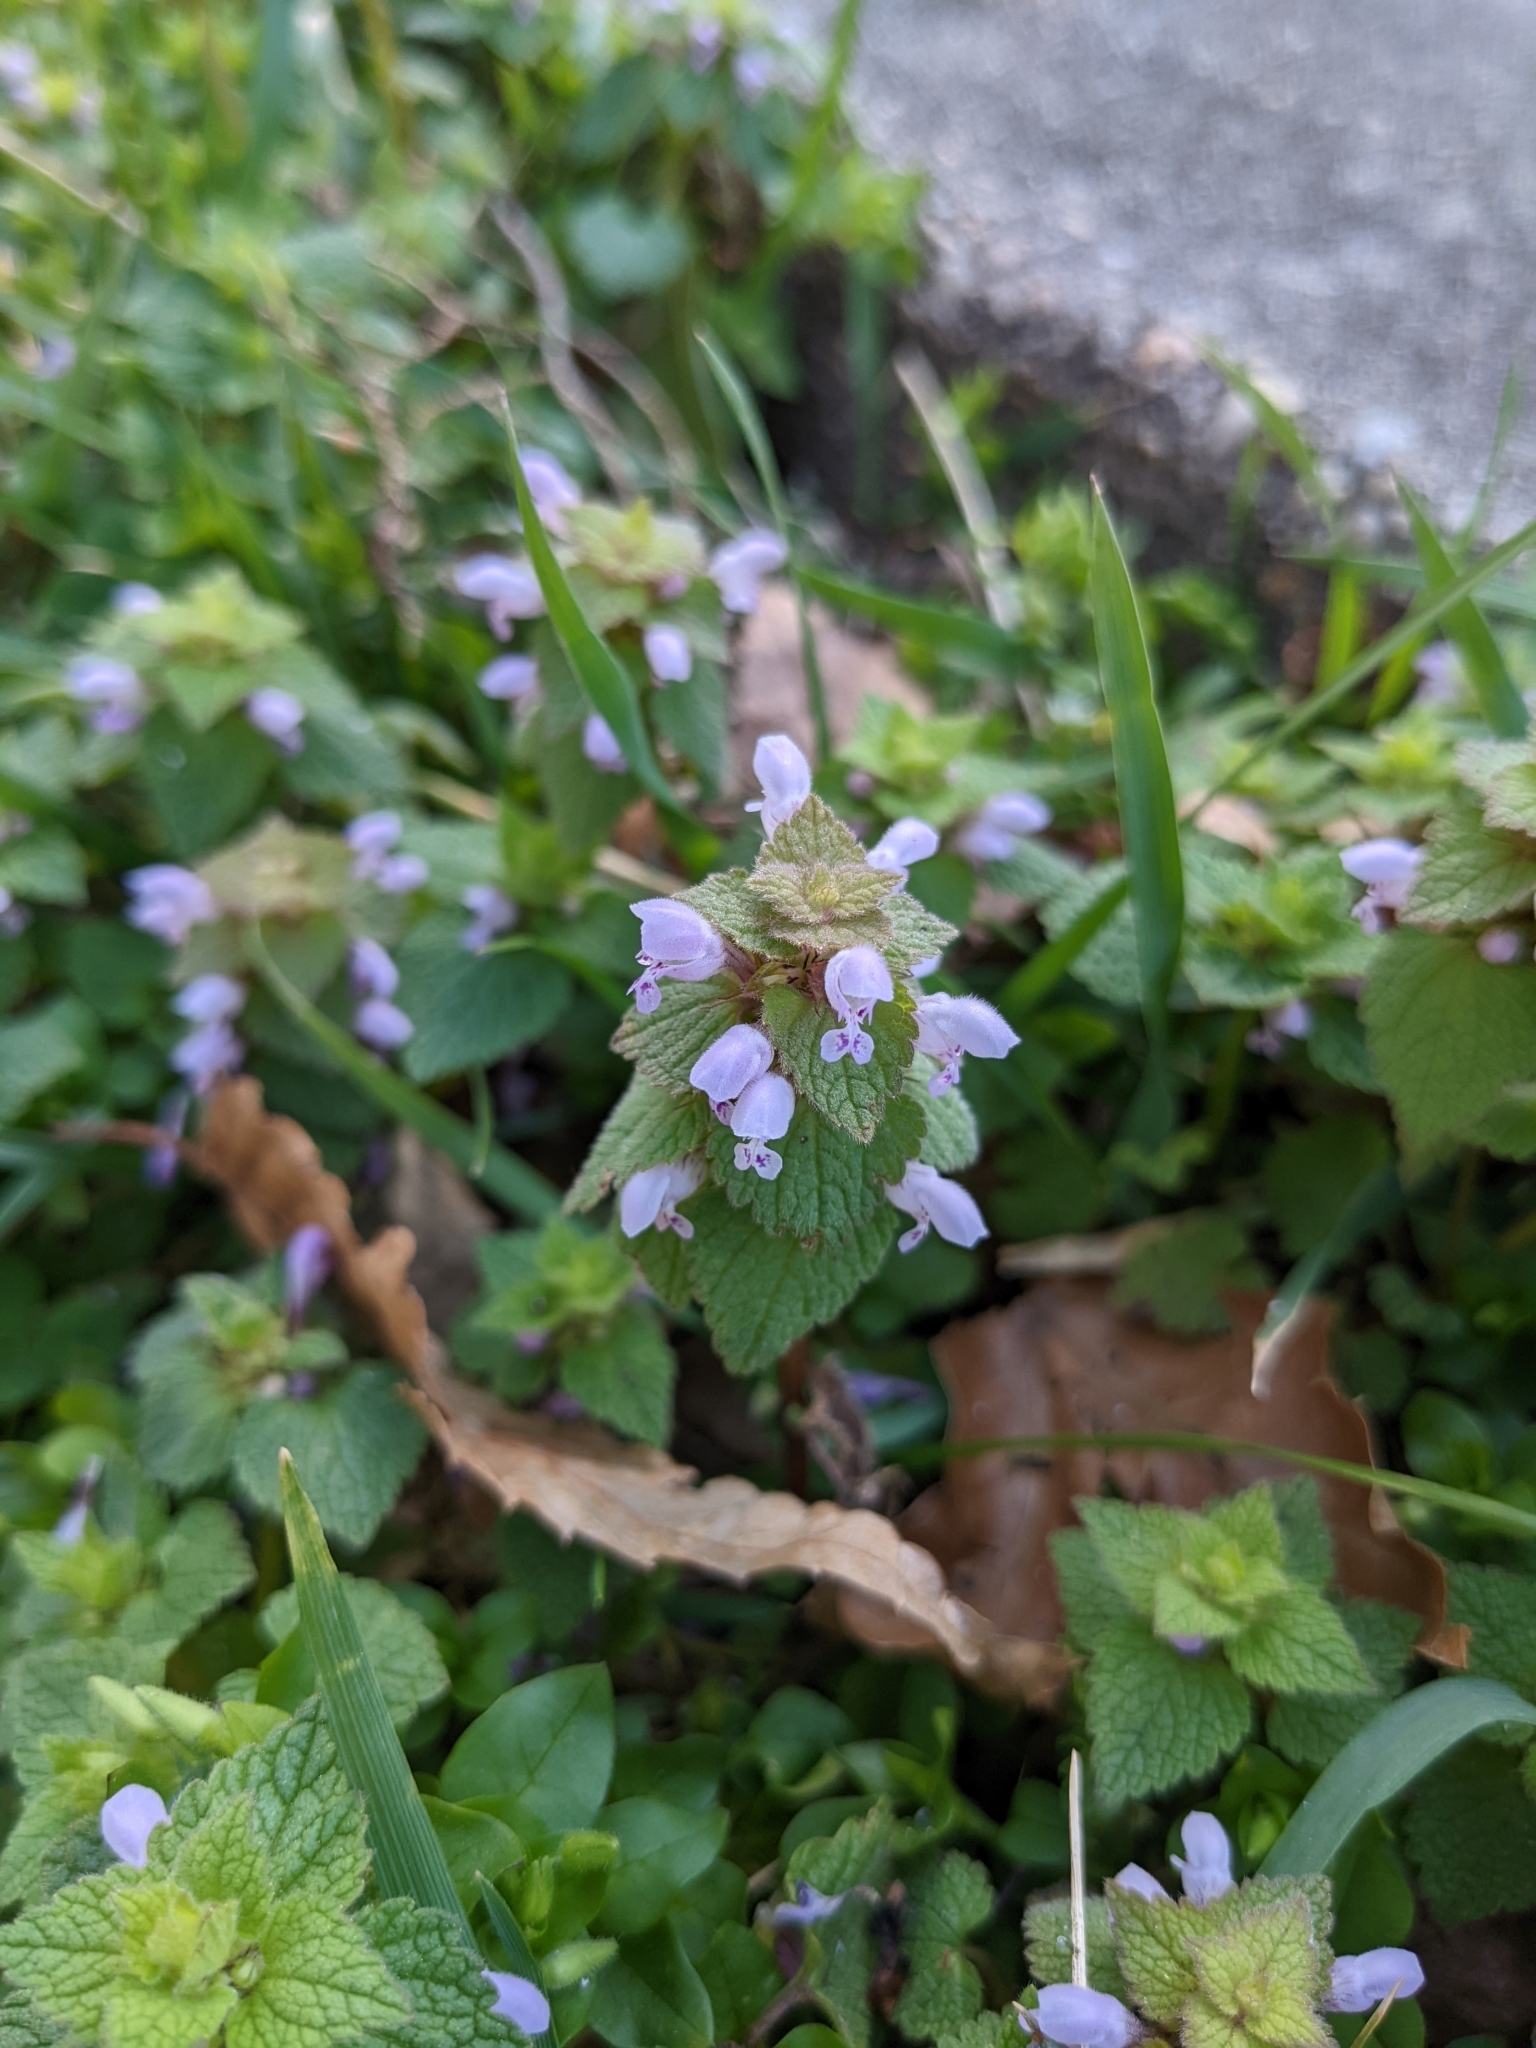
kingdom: Plantae
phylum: Tracheophyta
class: Magnoliopsida
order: Lamiales
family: Lamiaceae
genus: Lamium
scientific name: Lamium purpureum
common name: Red dead-nettle
